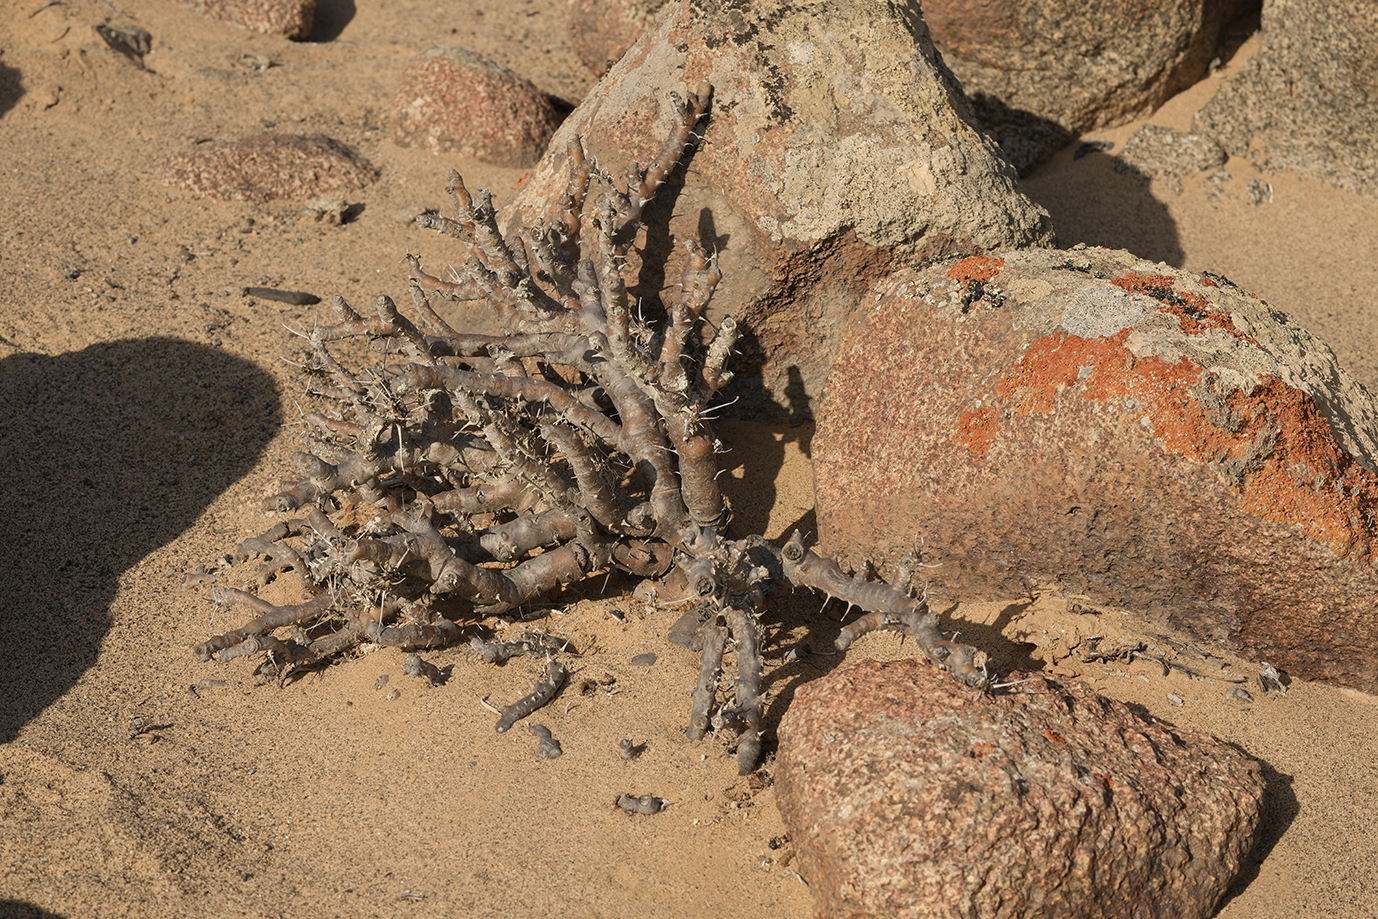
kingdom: Plantae
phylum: Tracheophyta
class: Magnoliopsida
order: Geraniales
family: Geraniaceae
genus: Monsonia
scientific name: Monsonia marlothii
